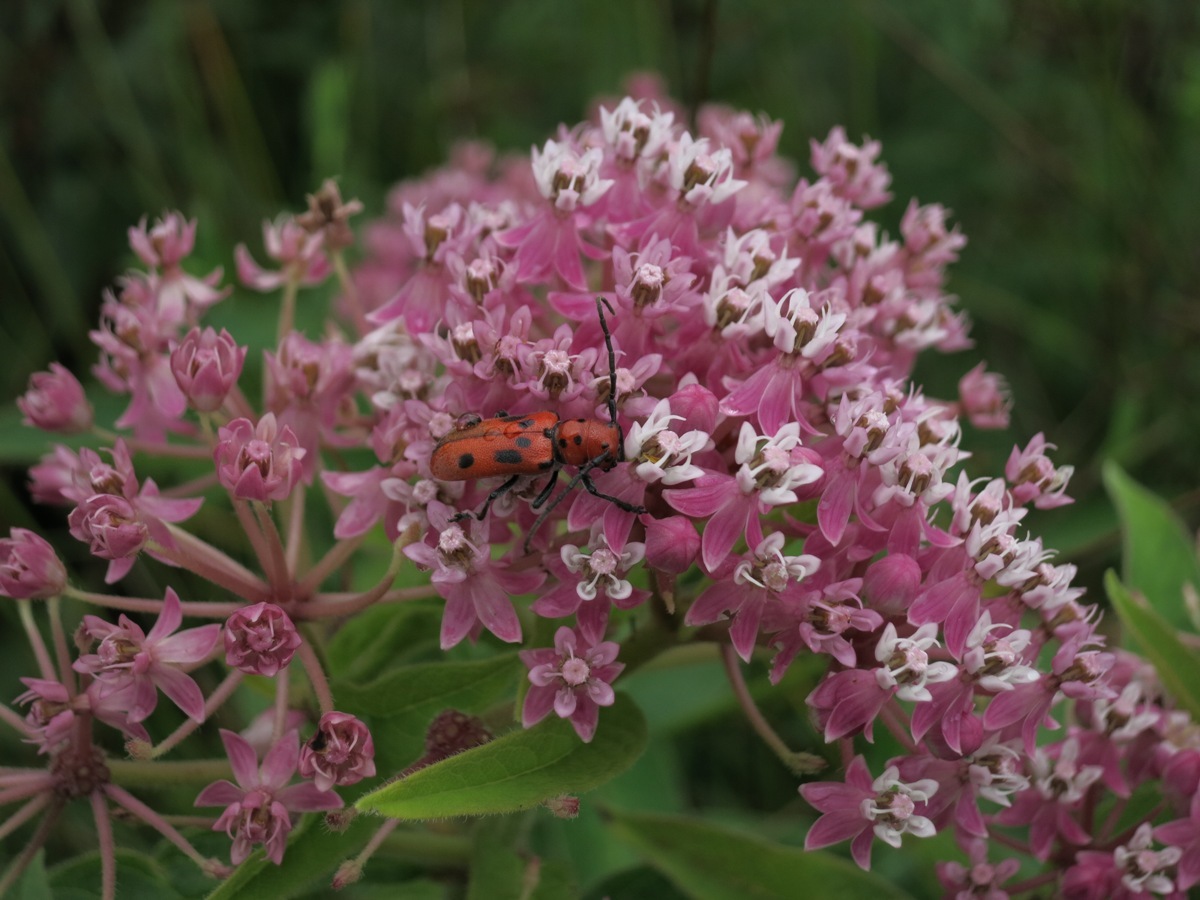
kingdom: Plantae
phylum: Tracheophyta
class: Magnoliopsida
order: Gentianales
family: Apocynaceae
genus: Asclepias
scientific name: Asclepias incarnata
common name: Swamp milkweed
